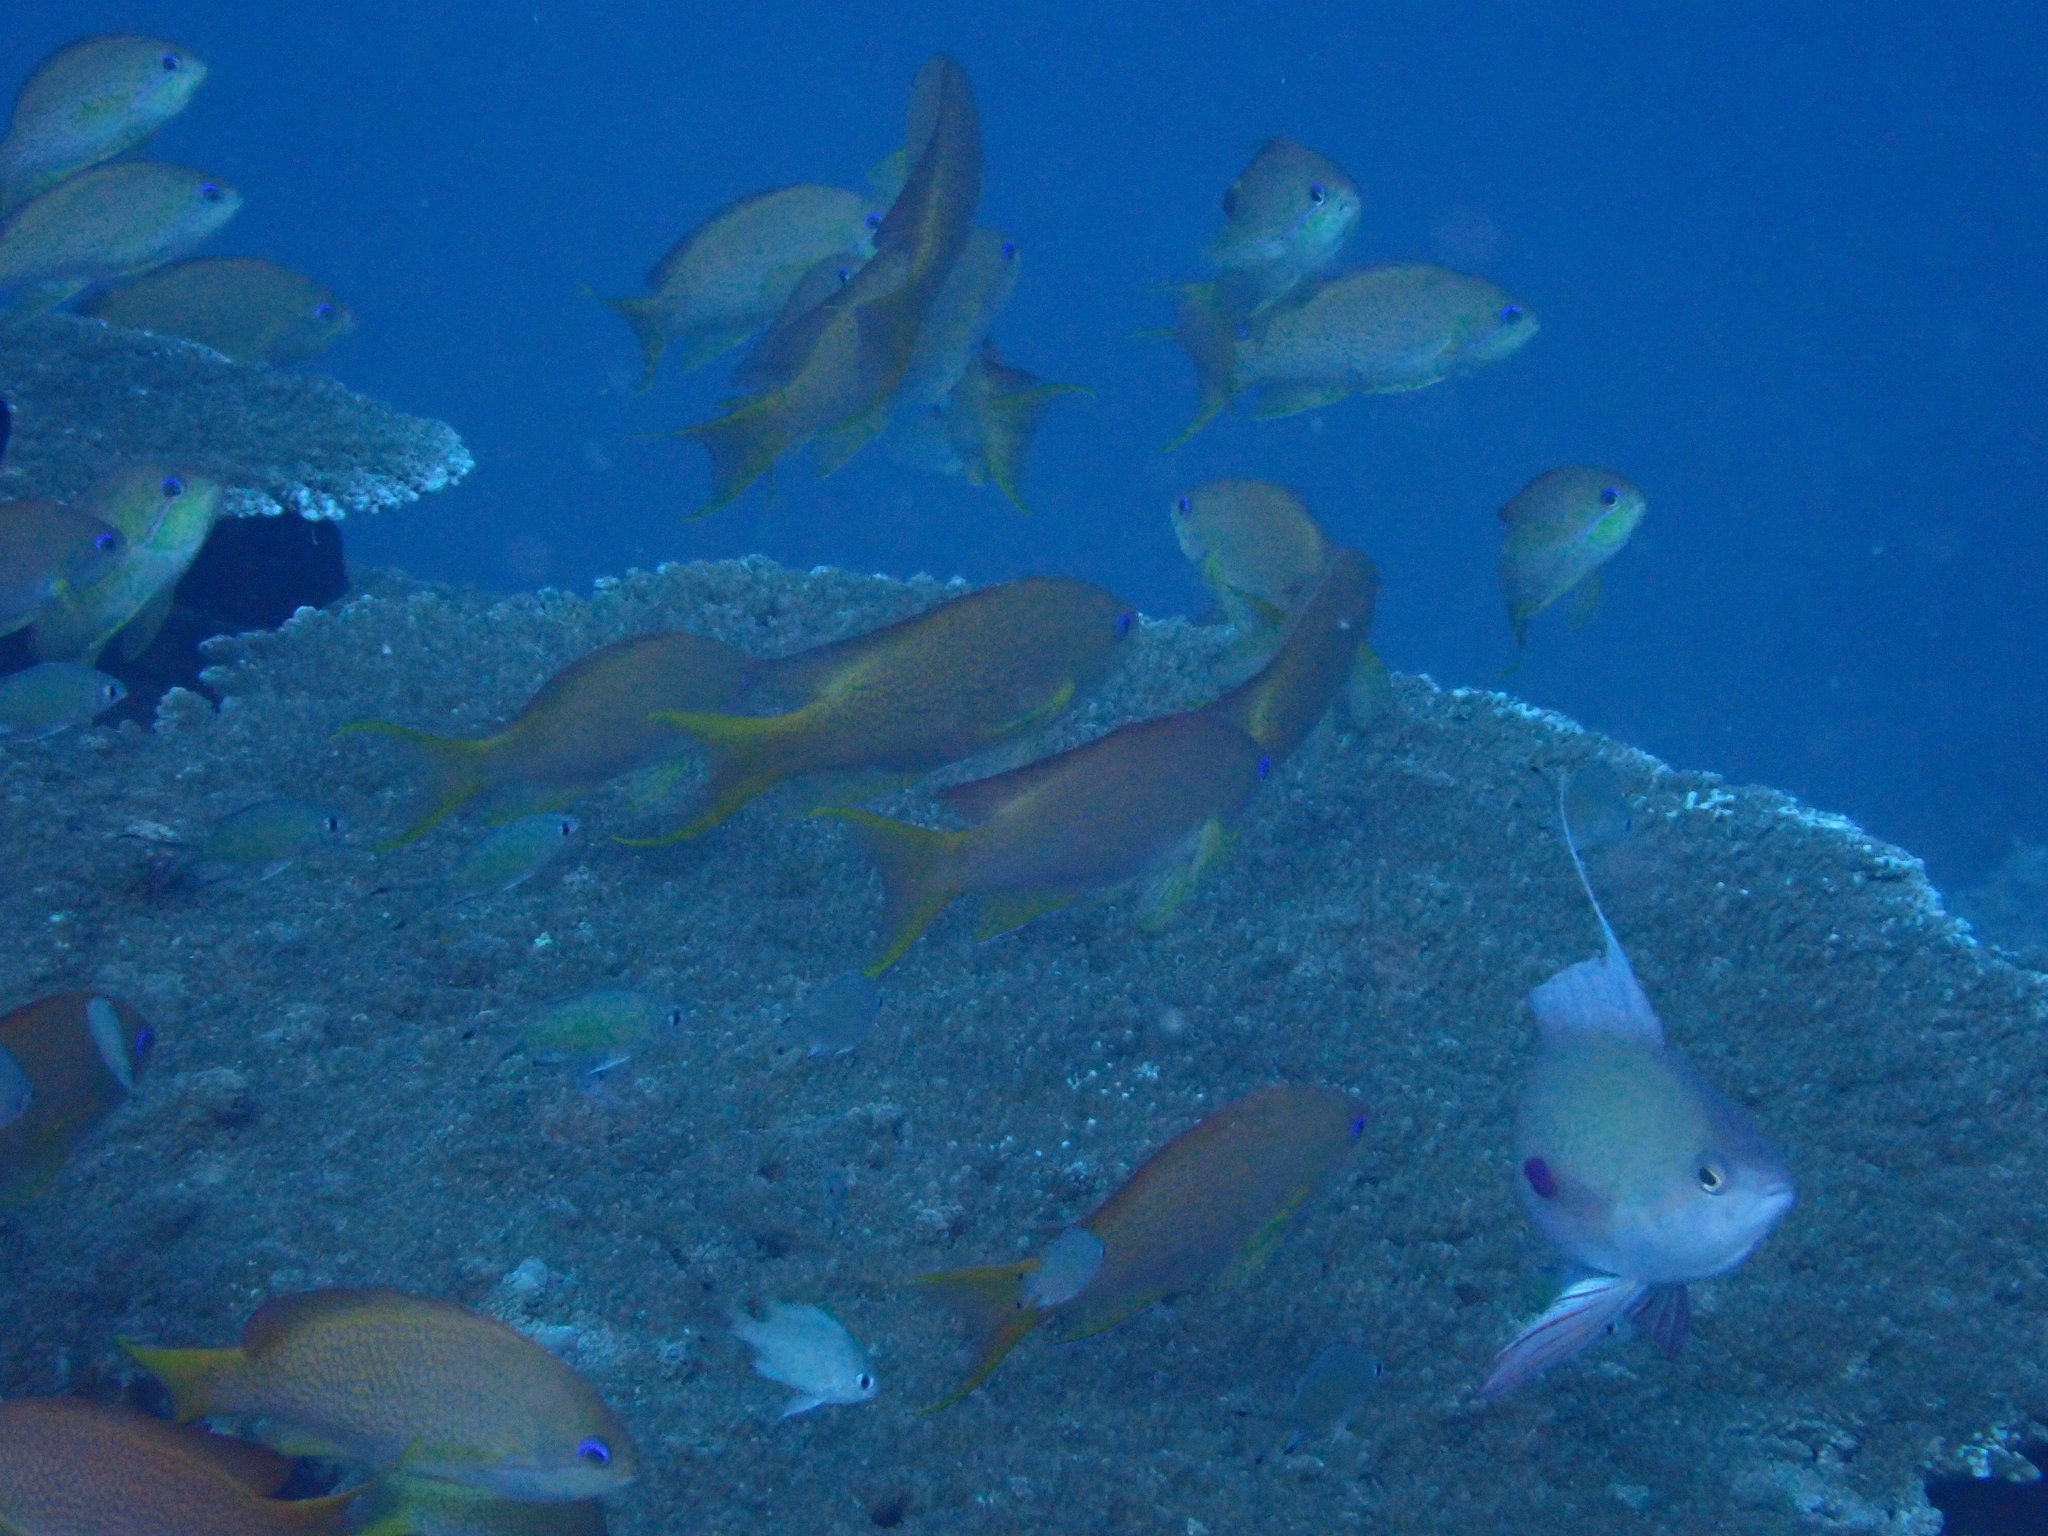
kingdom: Animalia
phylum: Chordata
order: Perciformes
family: Serranidae
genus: Pseudanthias
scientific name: Pseudanthias nobilis
